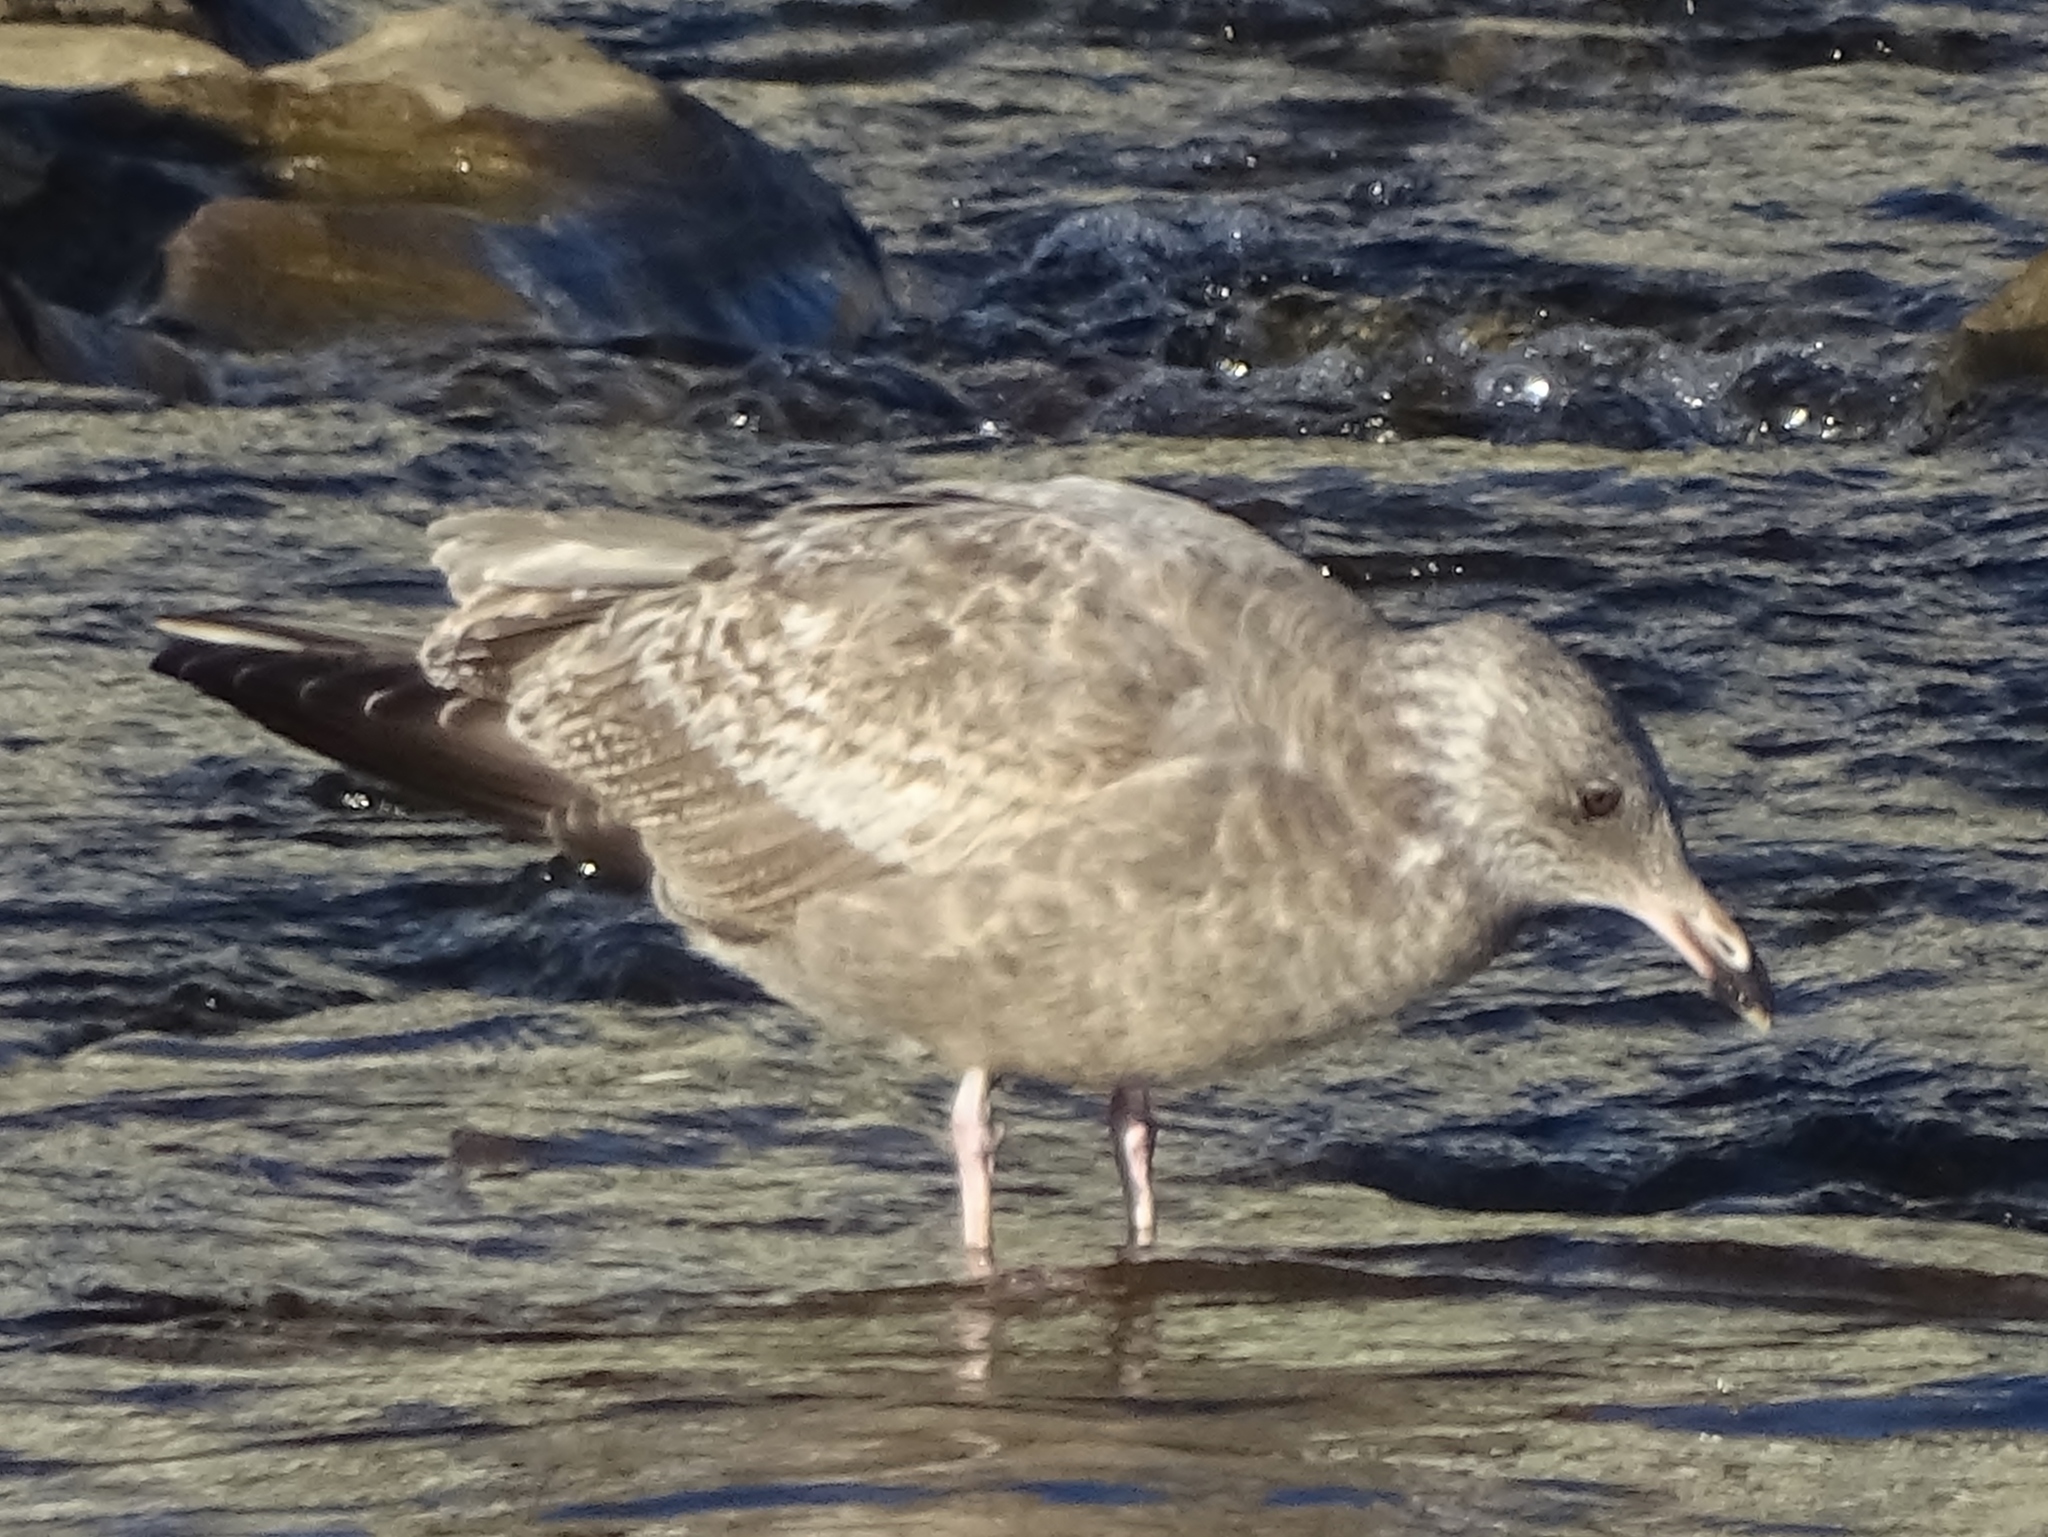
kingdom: Animalia
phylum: Chordata
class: Aves
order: Charadriiformes
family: Laridae
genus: Larus
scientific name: Larus argentatus
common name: Herring gull
